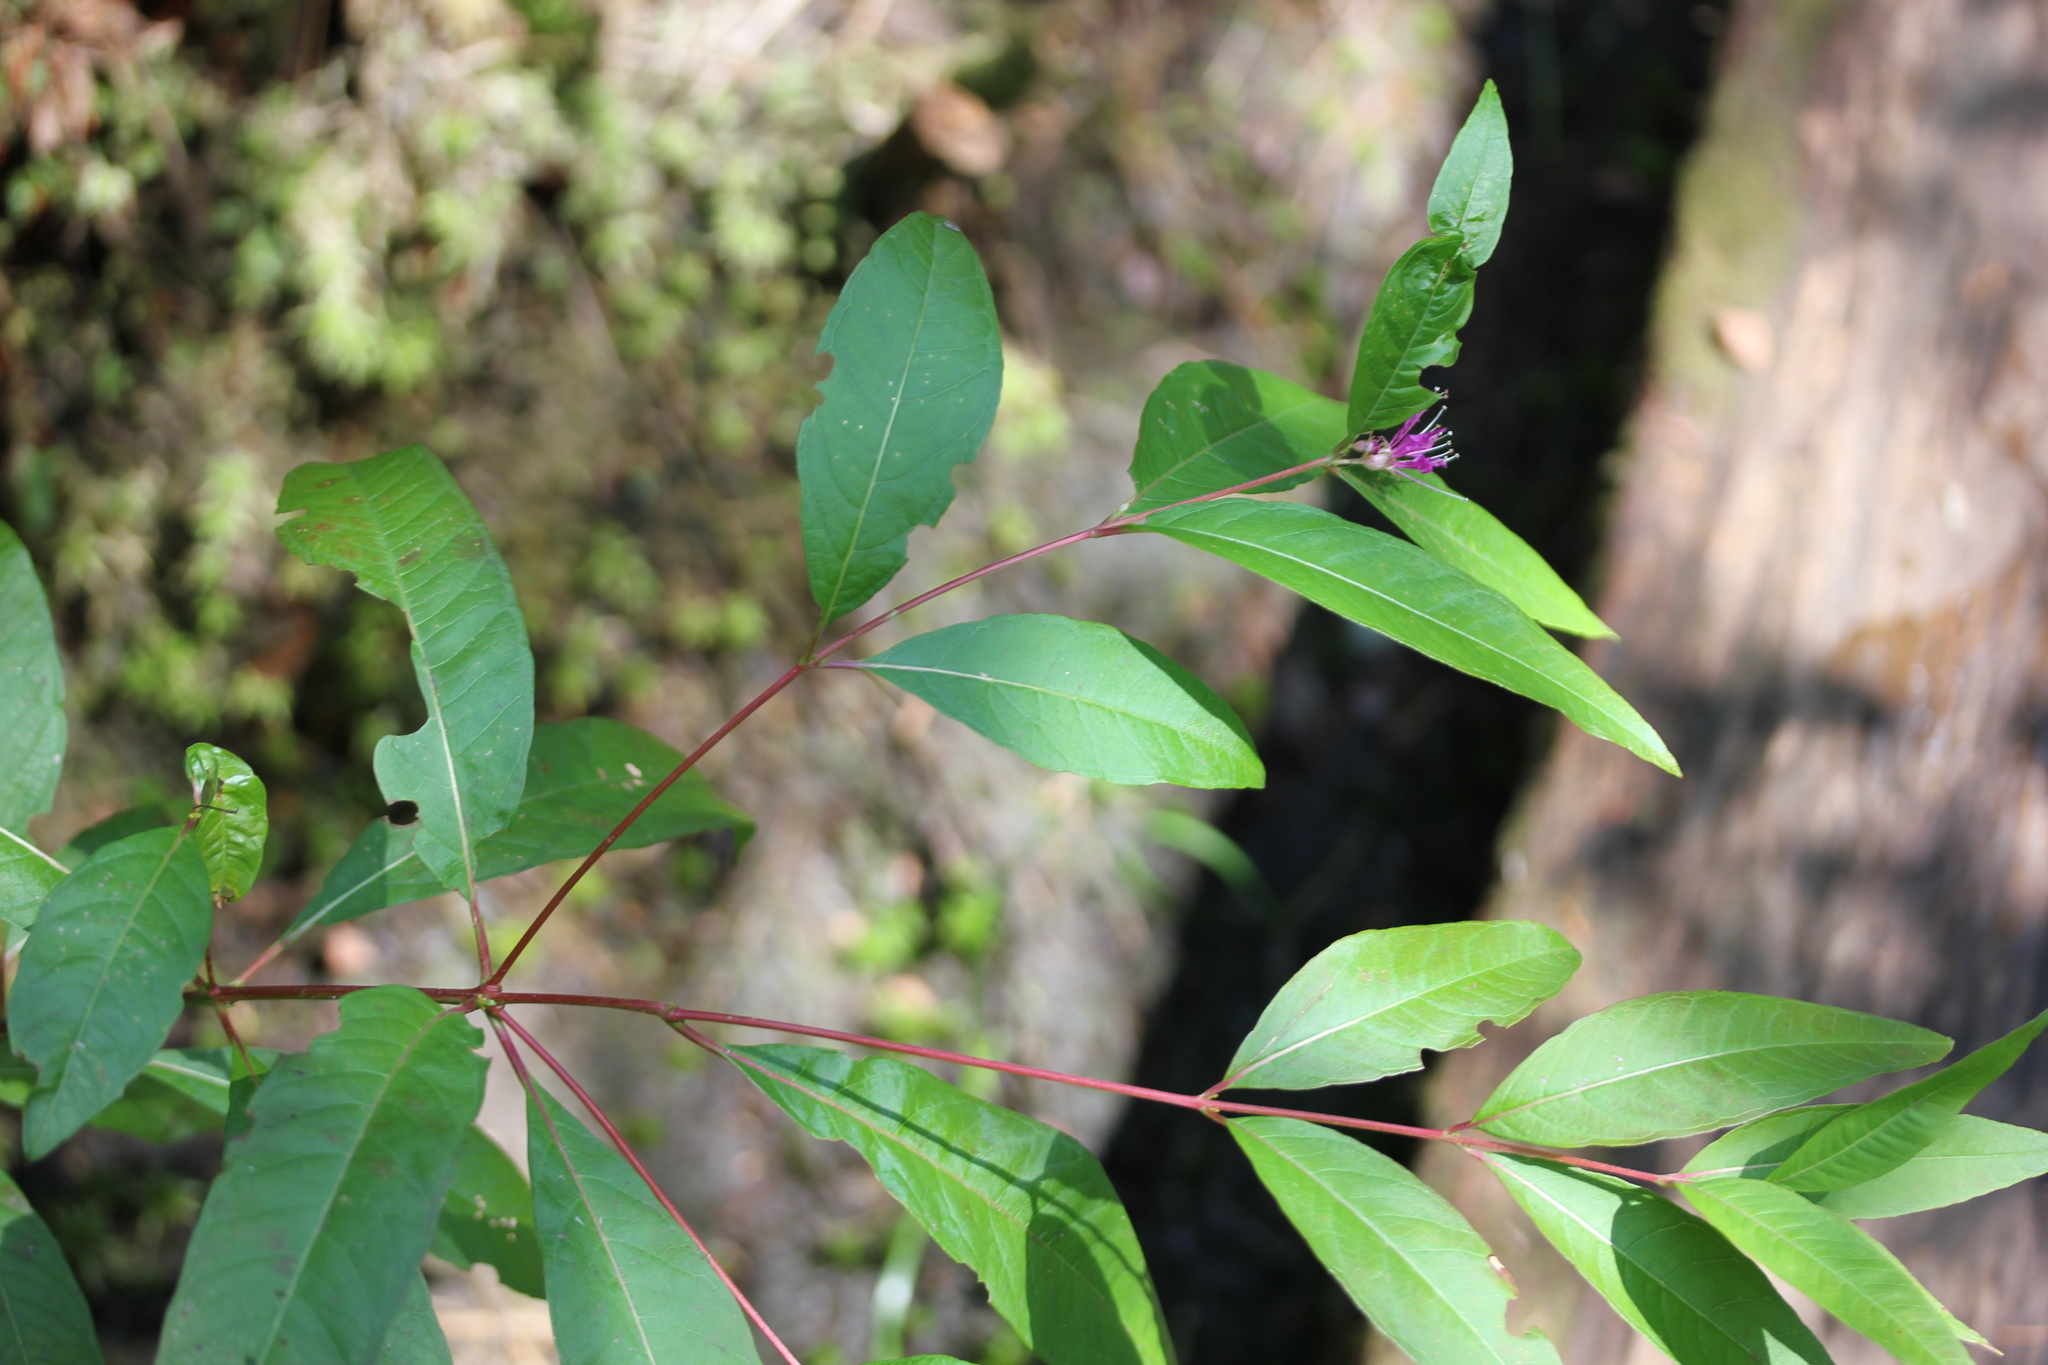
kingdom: Plantae
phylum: Tracheophyta
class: Magnoliopsida
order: Myrtales
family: Lythraceae
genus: Decodon
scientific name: Decodon verticillatus
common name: Hairy swamp loosestrife
